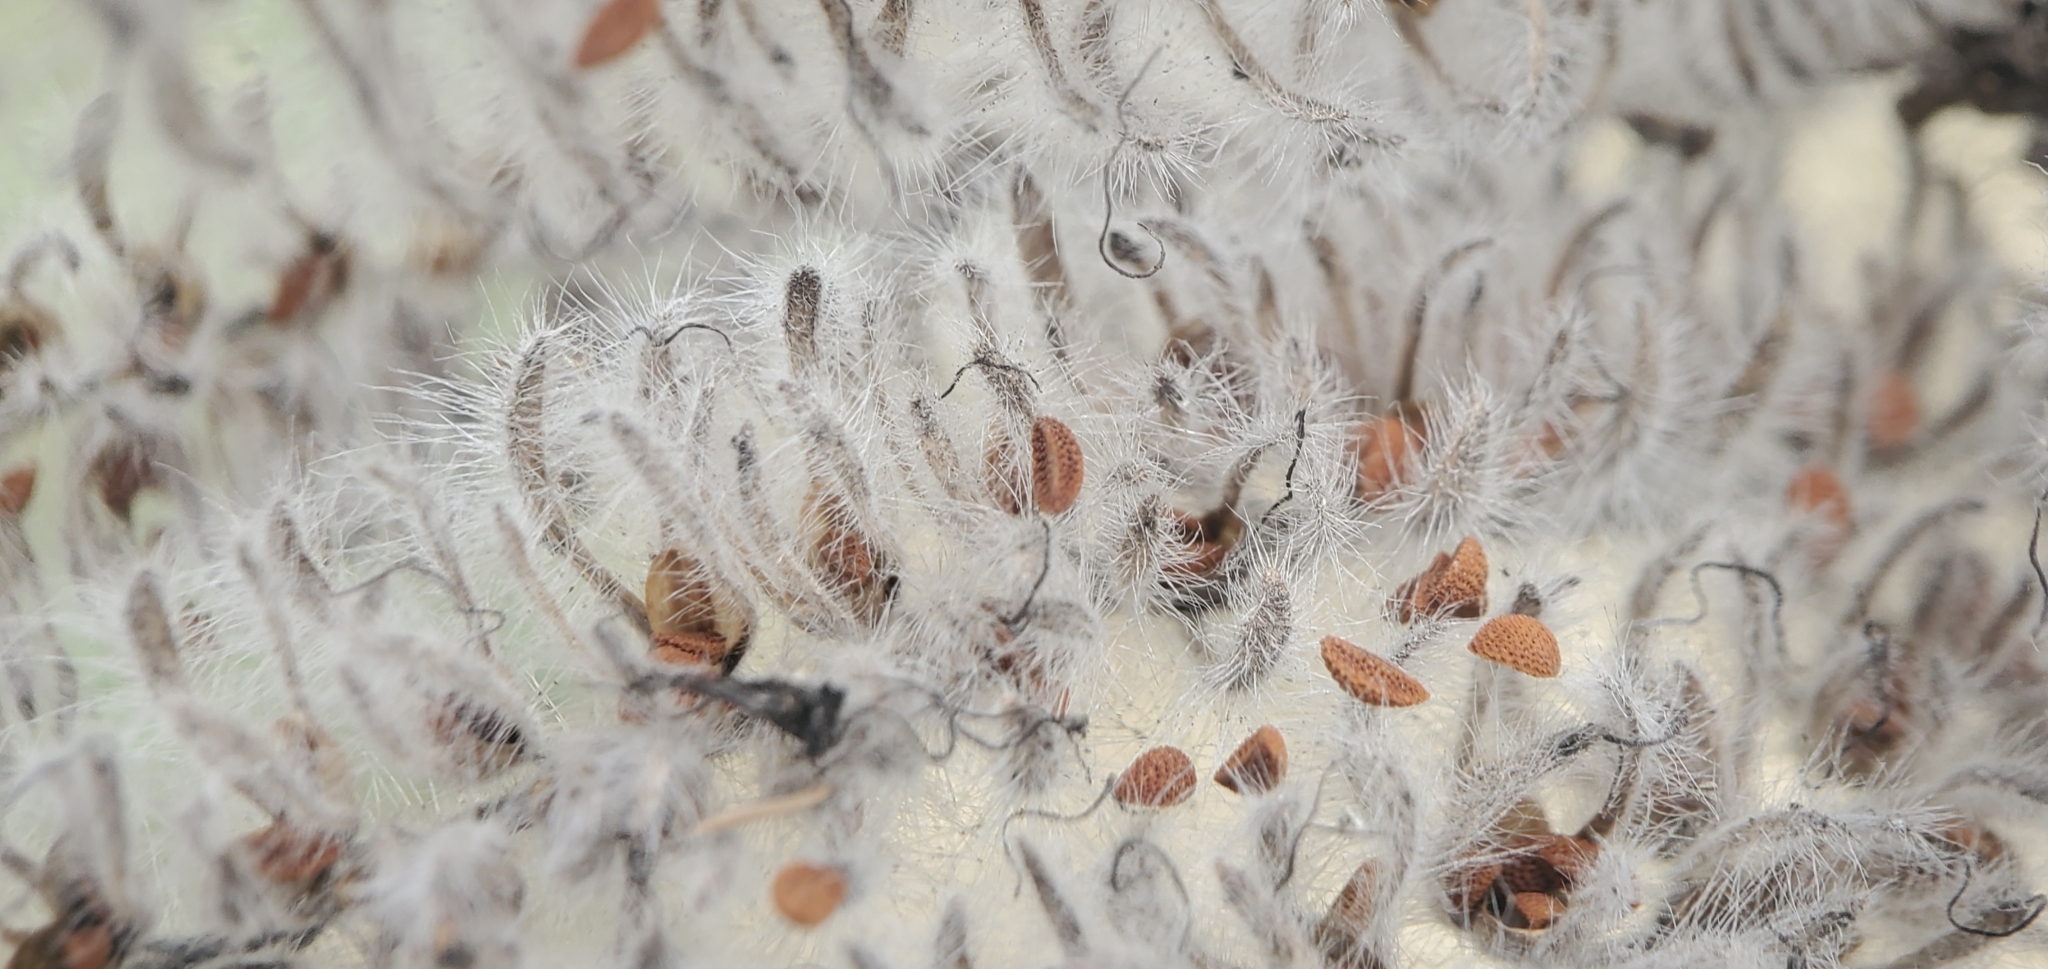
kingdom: Plantae
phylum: Tracheophyta
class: Magnoliopsida
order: Boraginales
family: Hydrophyllaceae
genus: Phacelia
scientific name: Phacelia hubbyi
